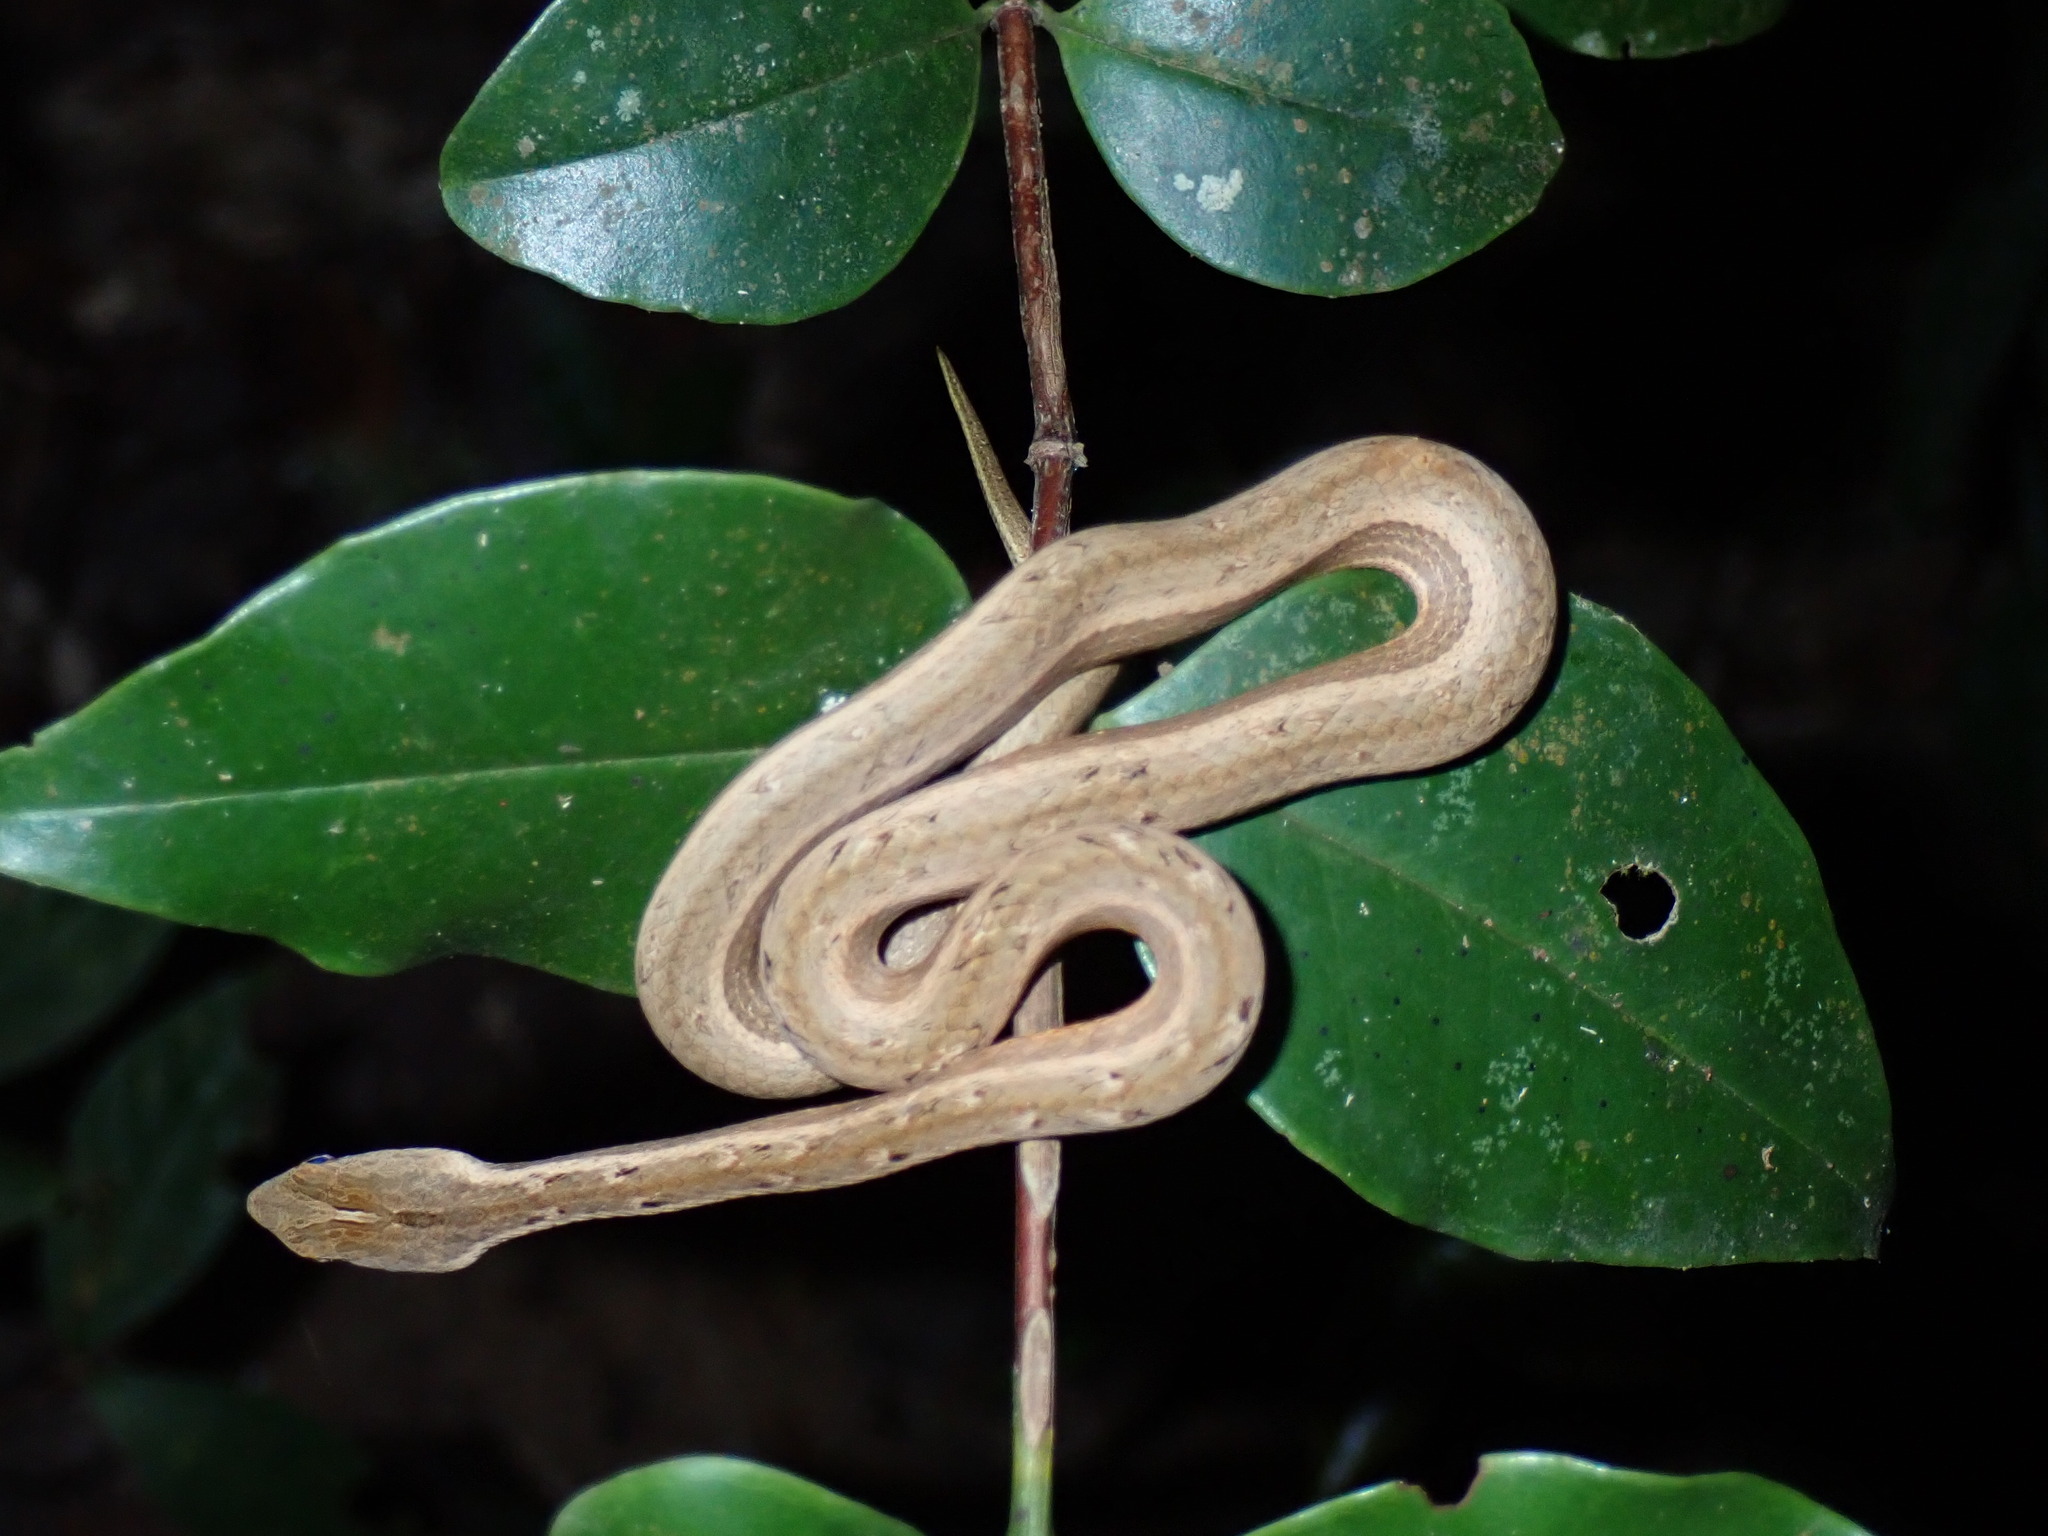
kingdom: Animalia
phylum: Chordata
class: Squamata
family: Pseudaspididae
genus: Psammodynastes
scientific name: Psammodynastes pulverulentus
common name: Common mock viper
